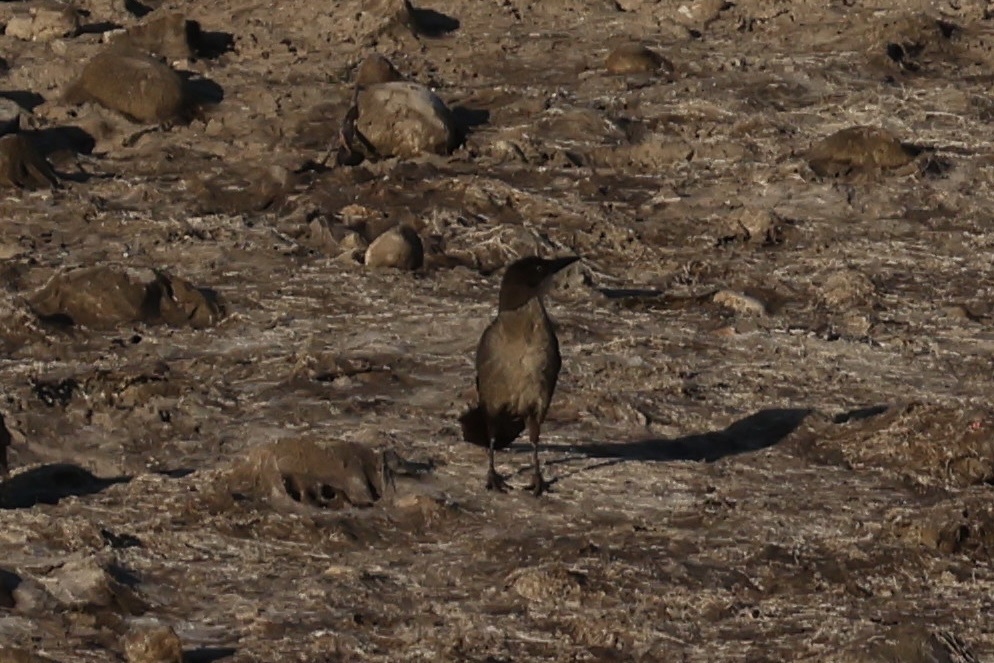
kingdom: Animalia
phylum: Chordata
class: Aves
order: Passeriformes
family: Icteridae
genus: Quiscalus
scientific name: Quiscalus mexicanus
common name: Great-tailed grackle
